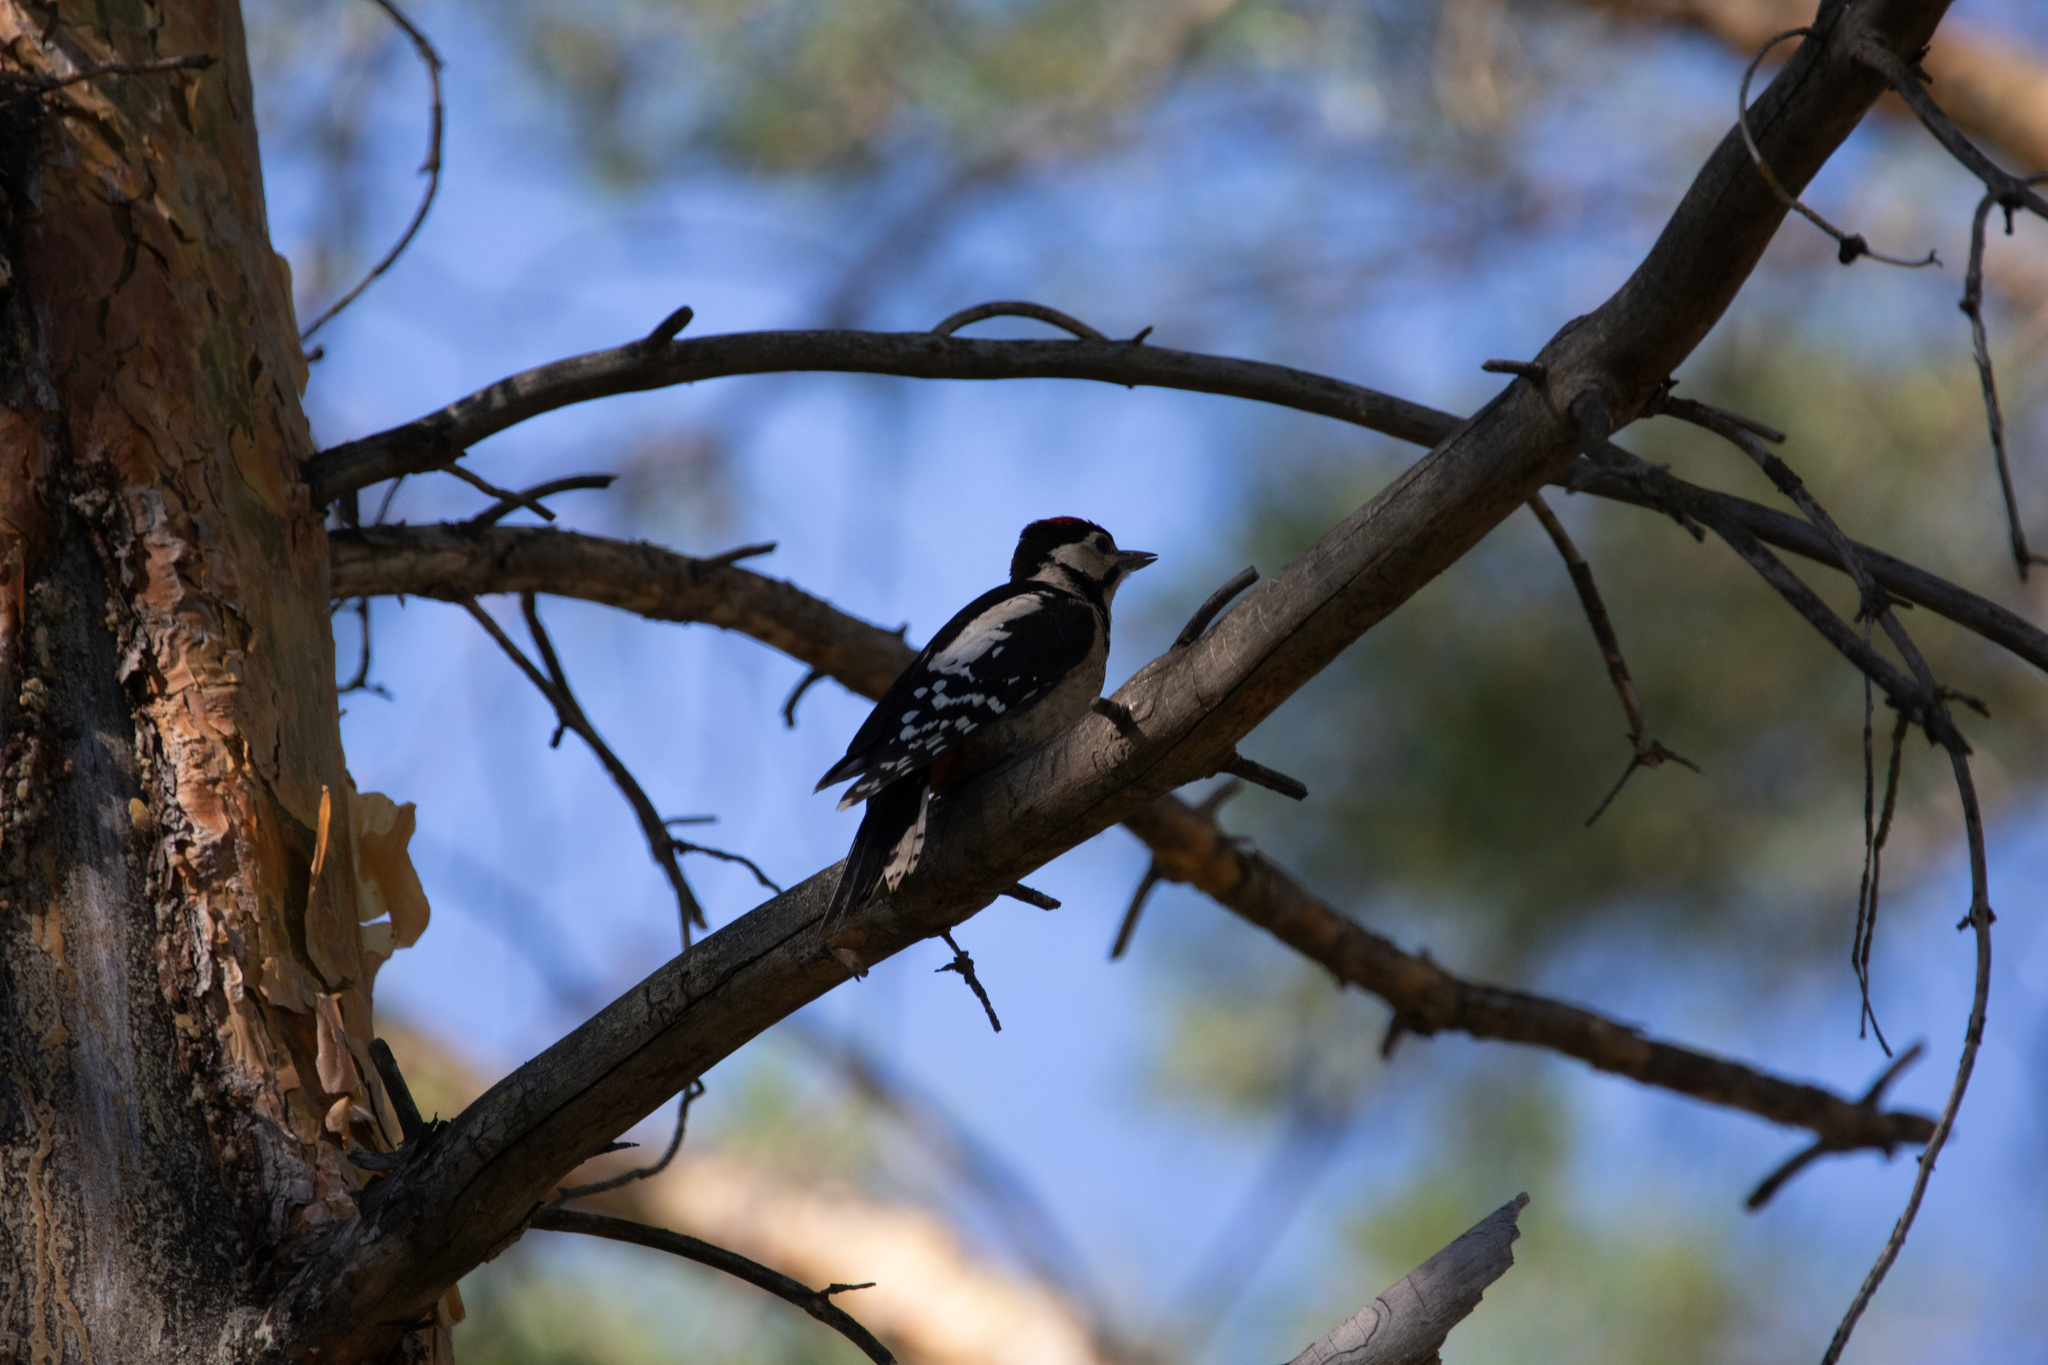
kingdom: Animalia
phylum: Chordata
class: Aves
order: Piciformes
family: Picidae
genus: Dendrocopos
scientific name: Dendrocopos major
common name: Great spotted woodpecker
